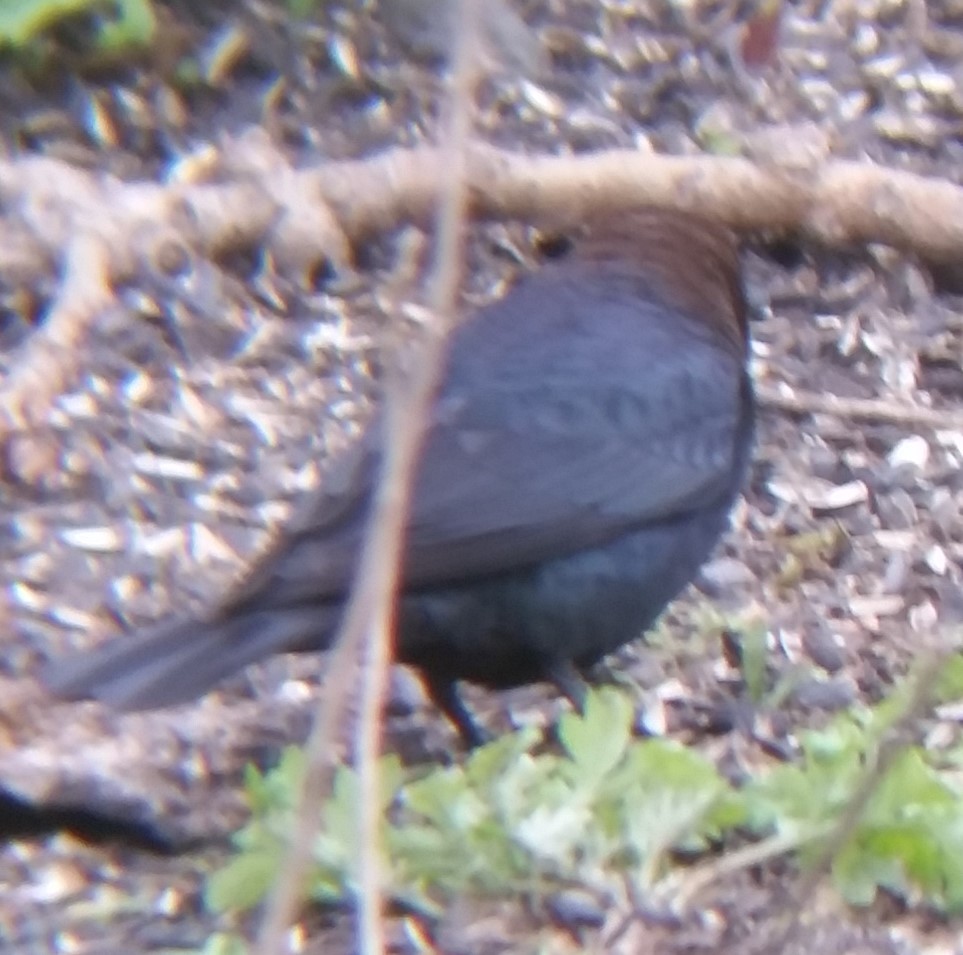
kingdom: Animalia
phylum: Chordata
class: Aves
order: Passeriformes
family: Icteridae
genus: Molothrus
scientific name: Molothrus ater
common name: Brown-headed cowbird
